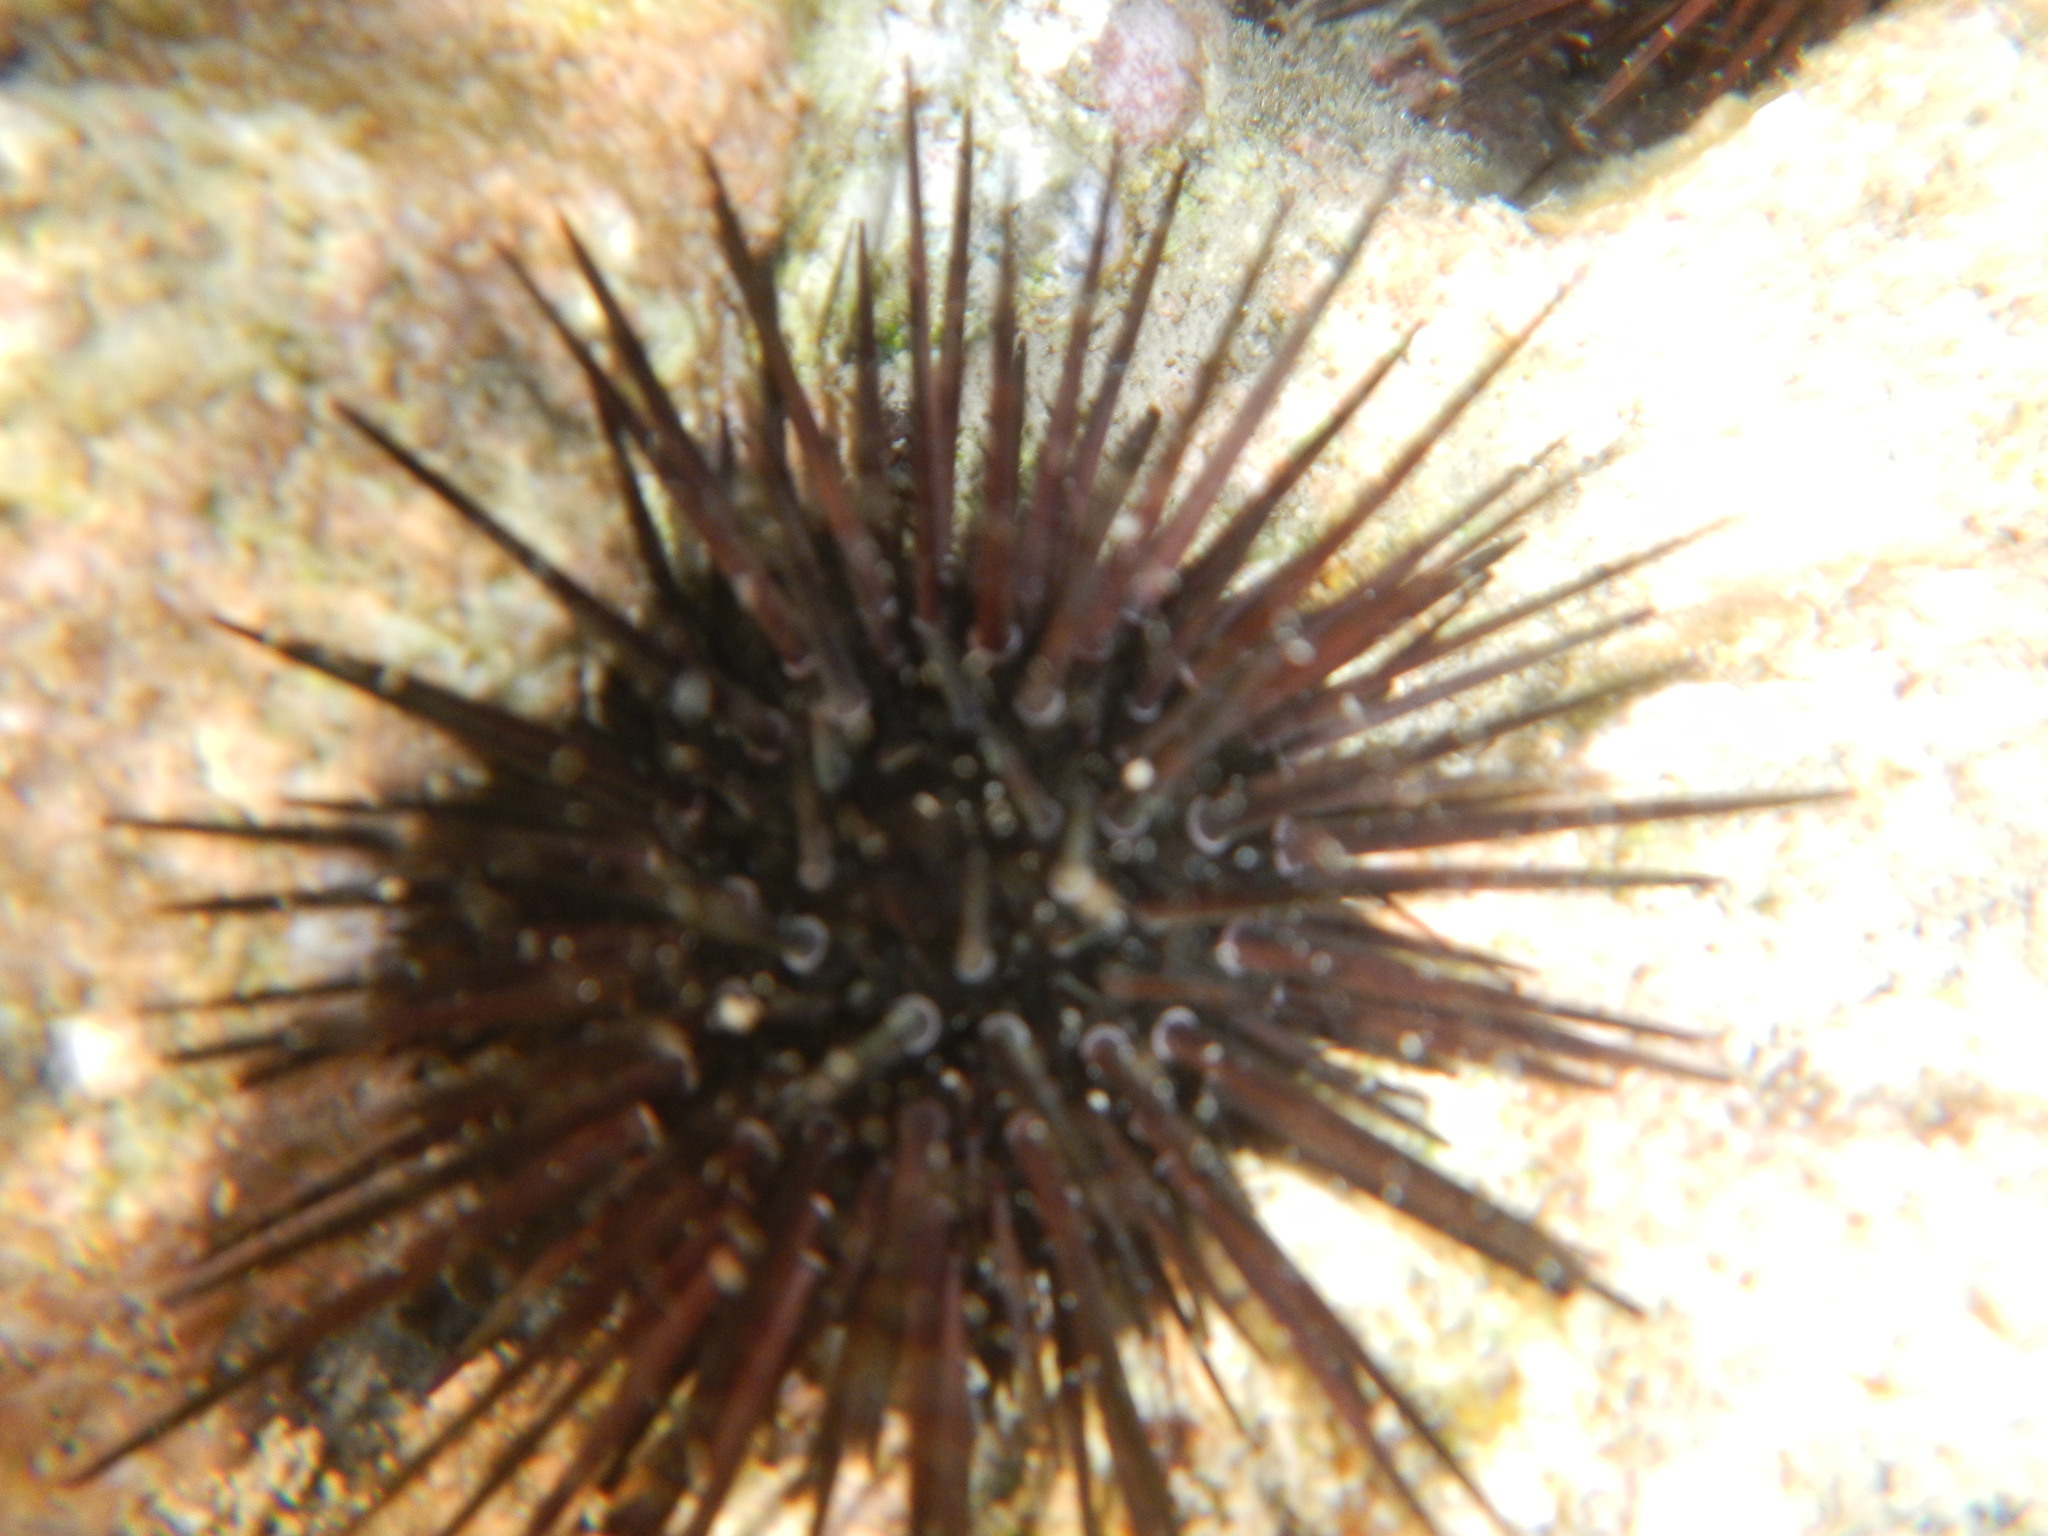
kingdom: Animalia
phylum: Echinodermata
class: Echinoidea
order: Camarodonta
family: Echinometridae
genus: Echinometra
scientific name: Echinometra viridis
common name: Reef urchin
